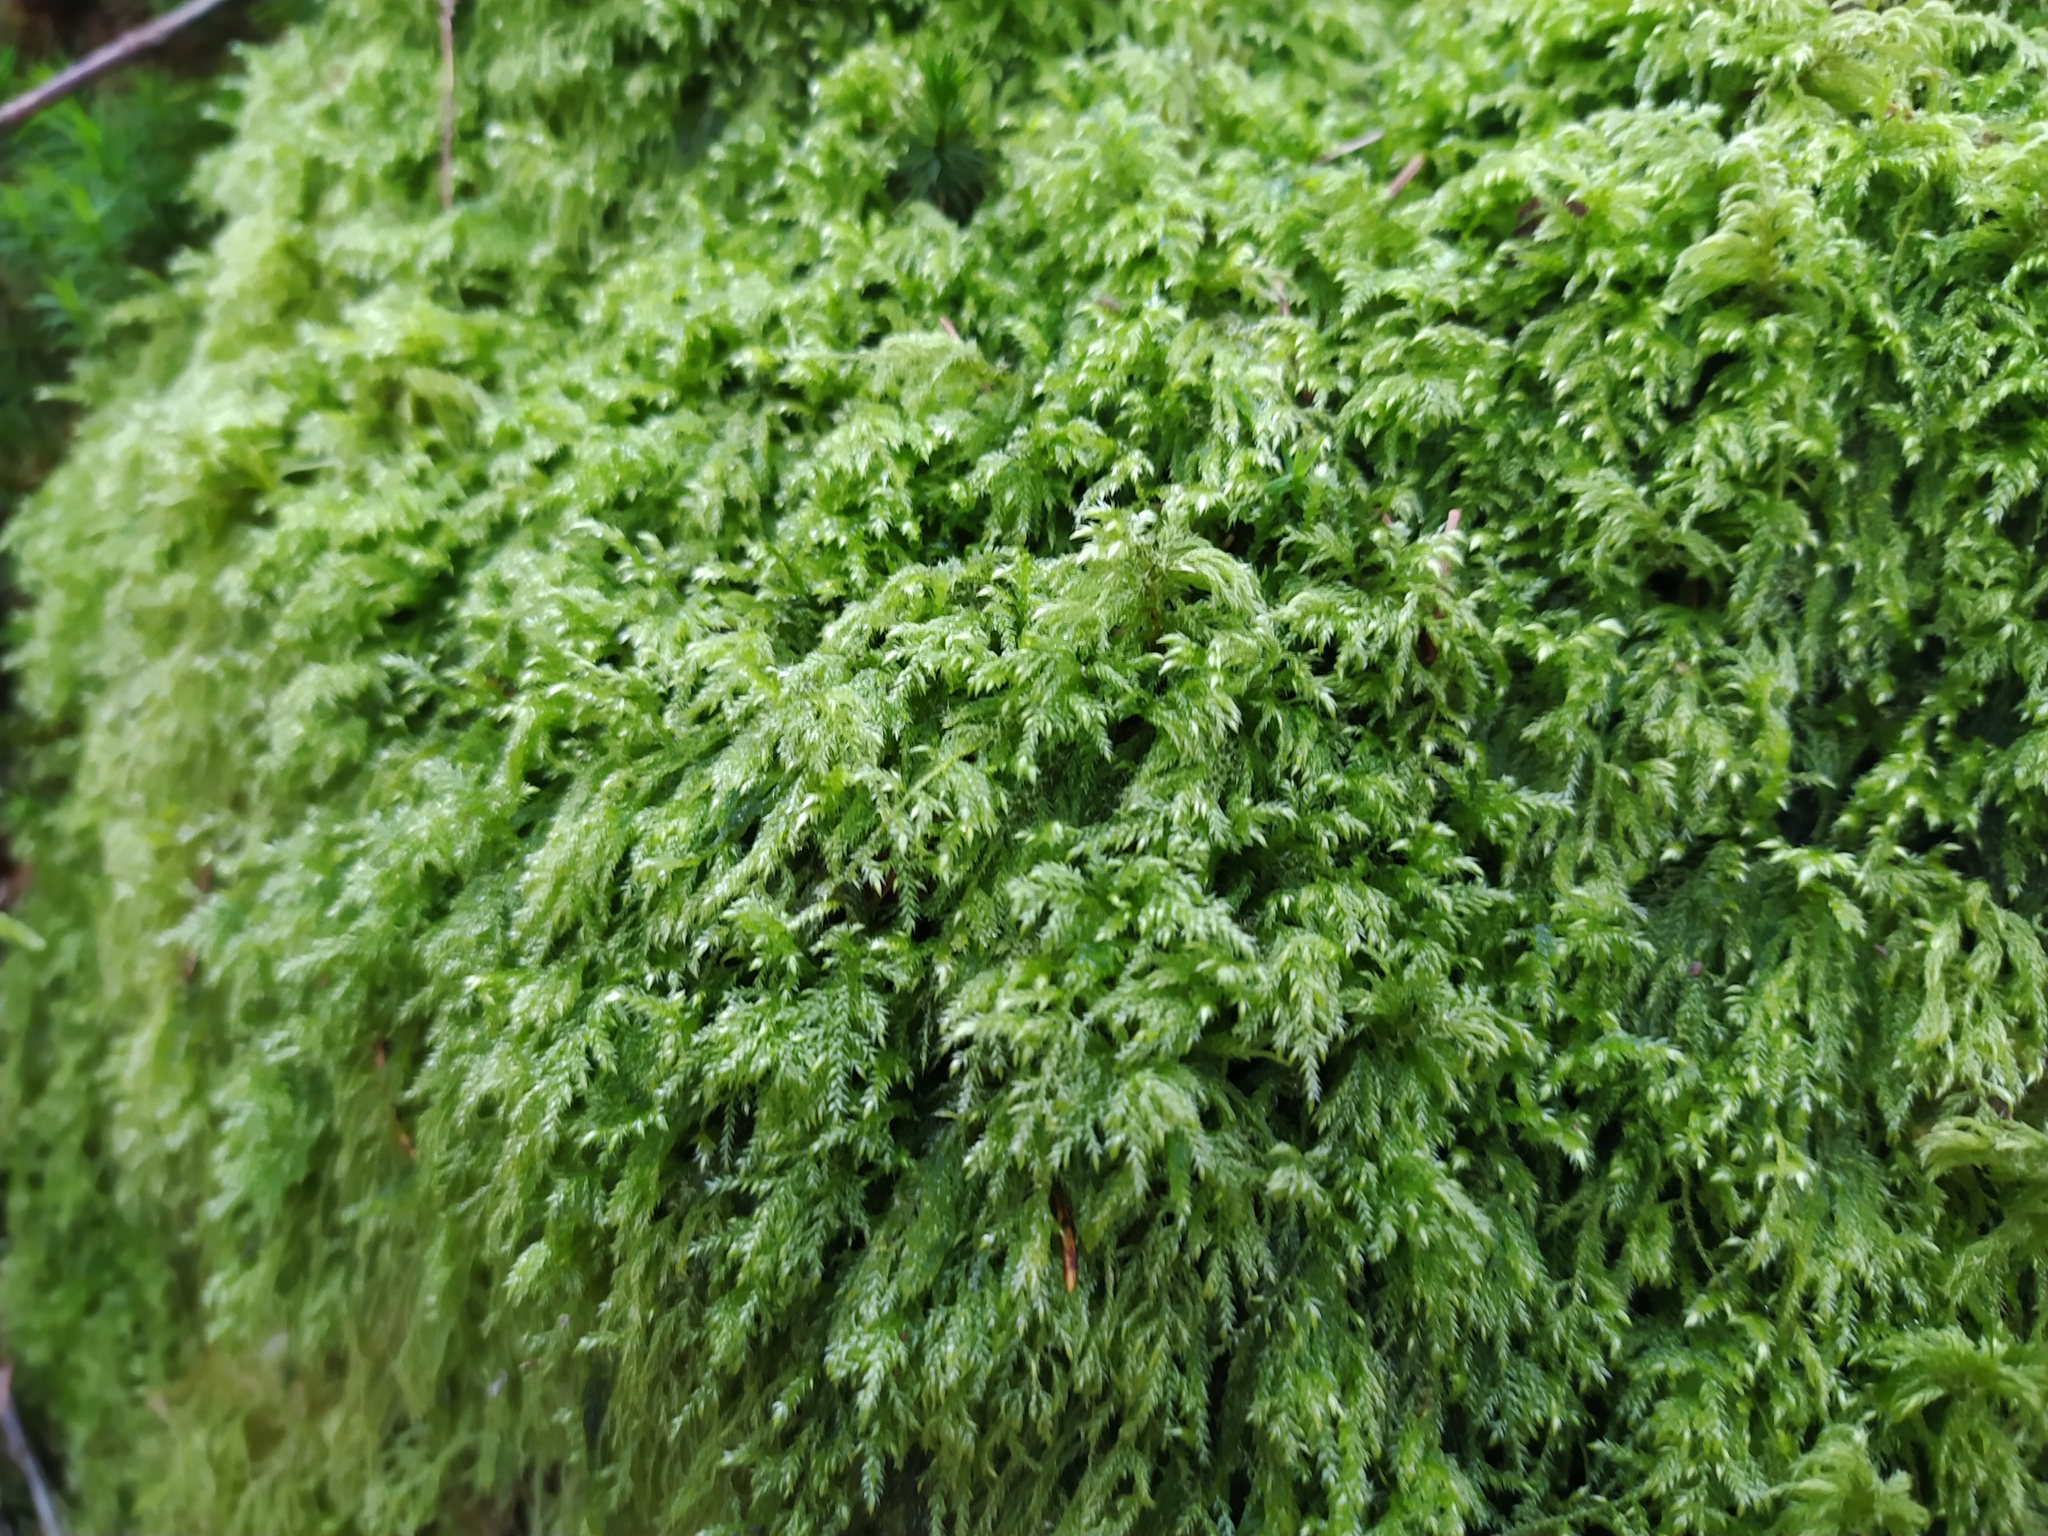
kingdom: Plantae
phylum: Bryophyta
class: Bryopsida
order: Hypnales
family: Lembophyllaceae
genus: Pseudisothecium
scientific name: Pseudisothecium myosuroides
